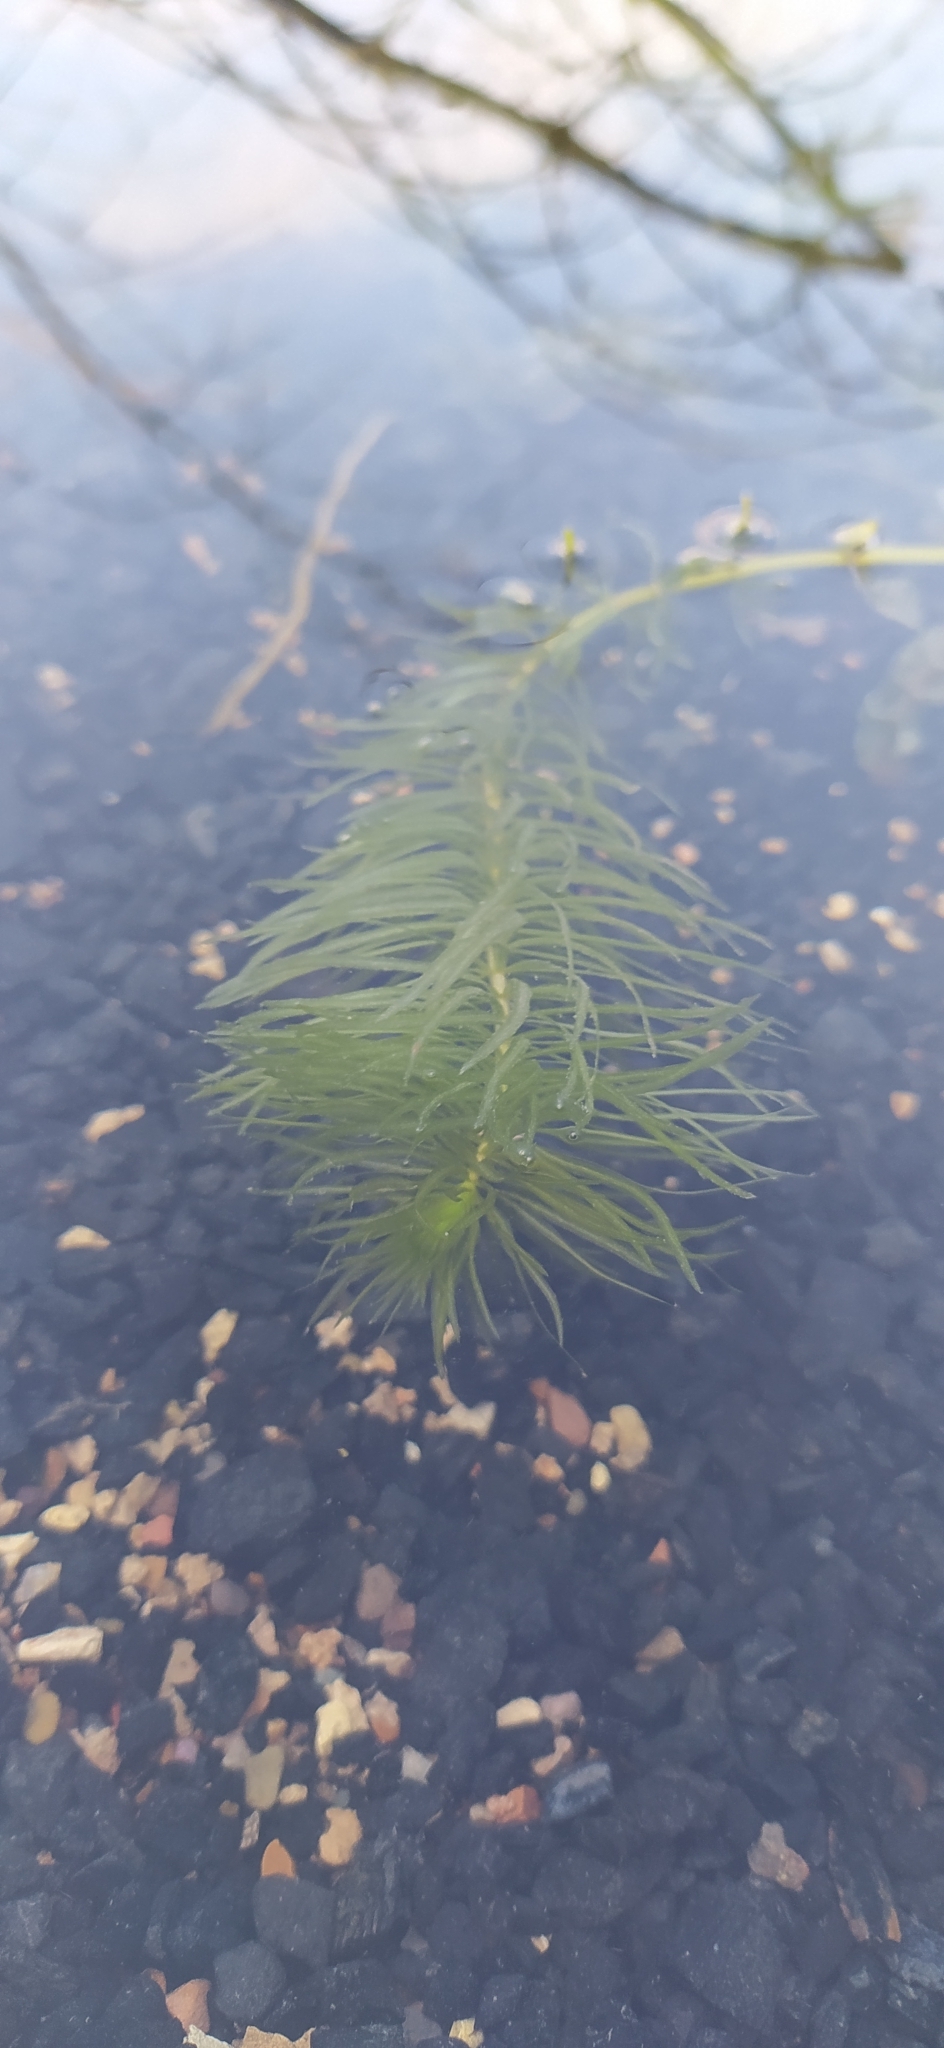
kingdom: Plantae
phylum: Tracheophyta
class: Magnoliopsida
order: Lamiales
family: Plantaginaceae
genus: Hippuris
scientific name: Hippuris vulgaris
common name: Mare's-tail
